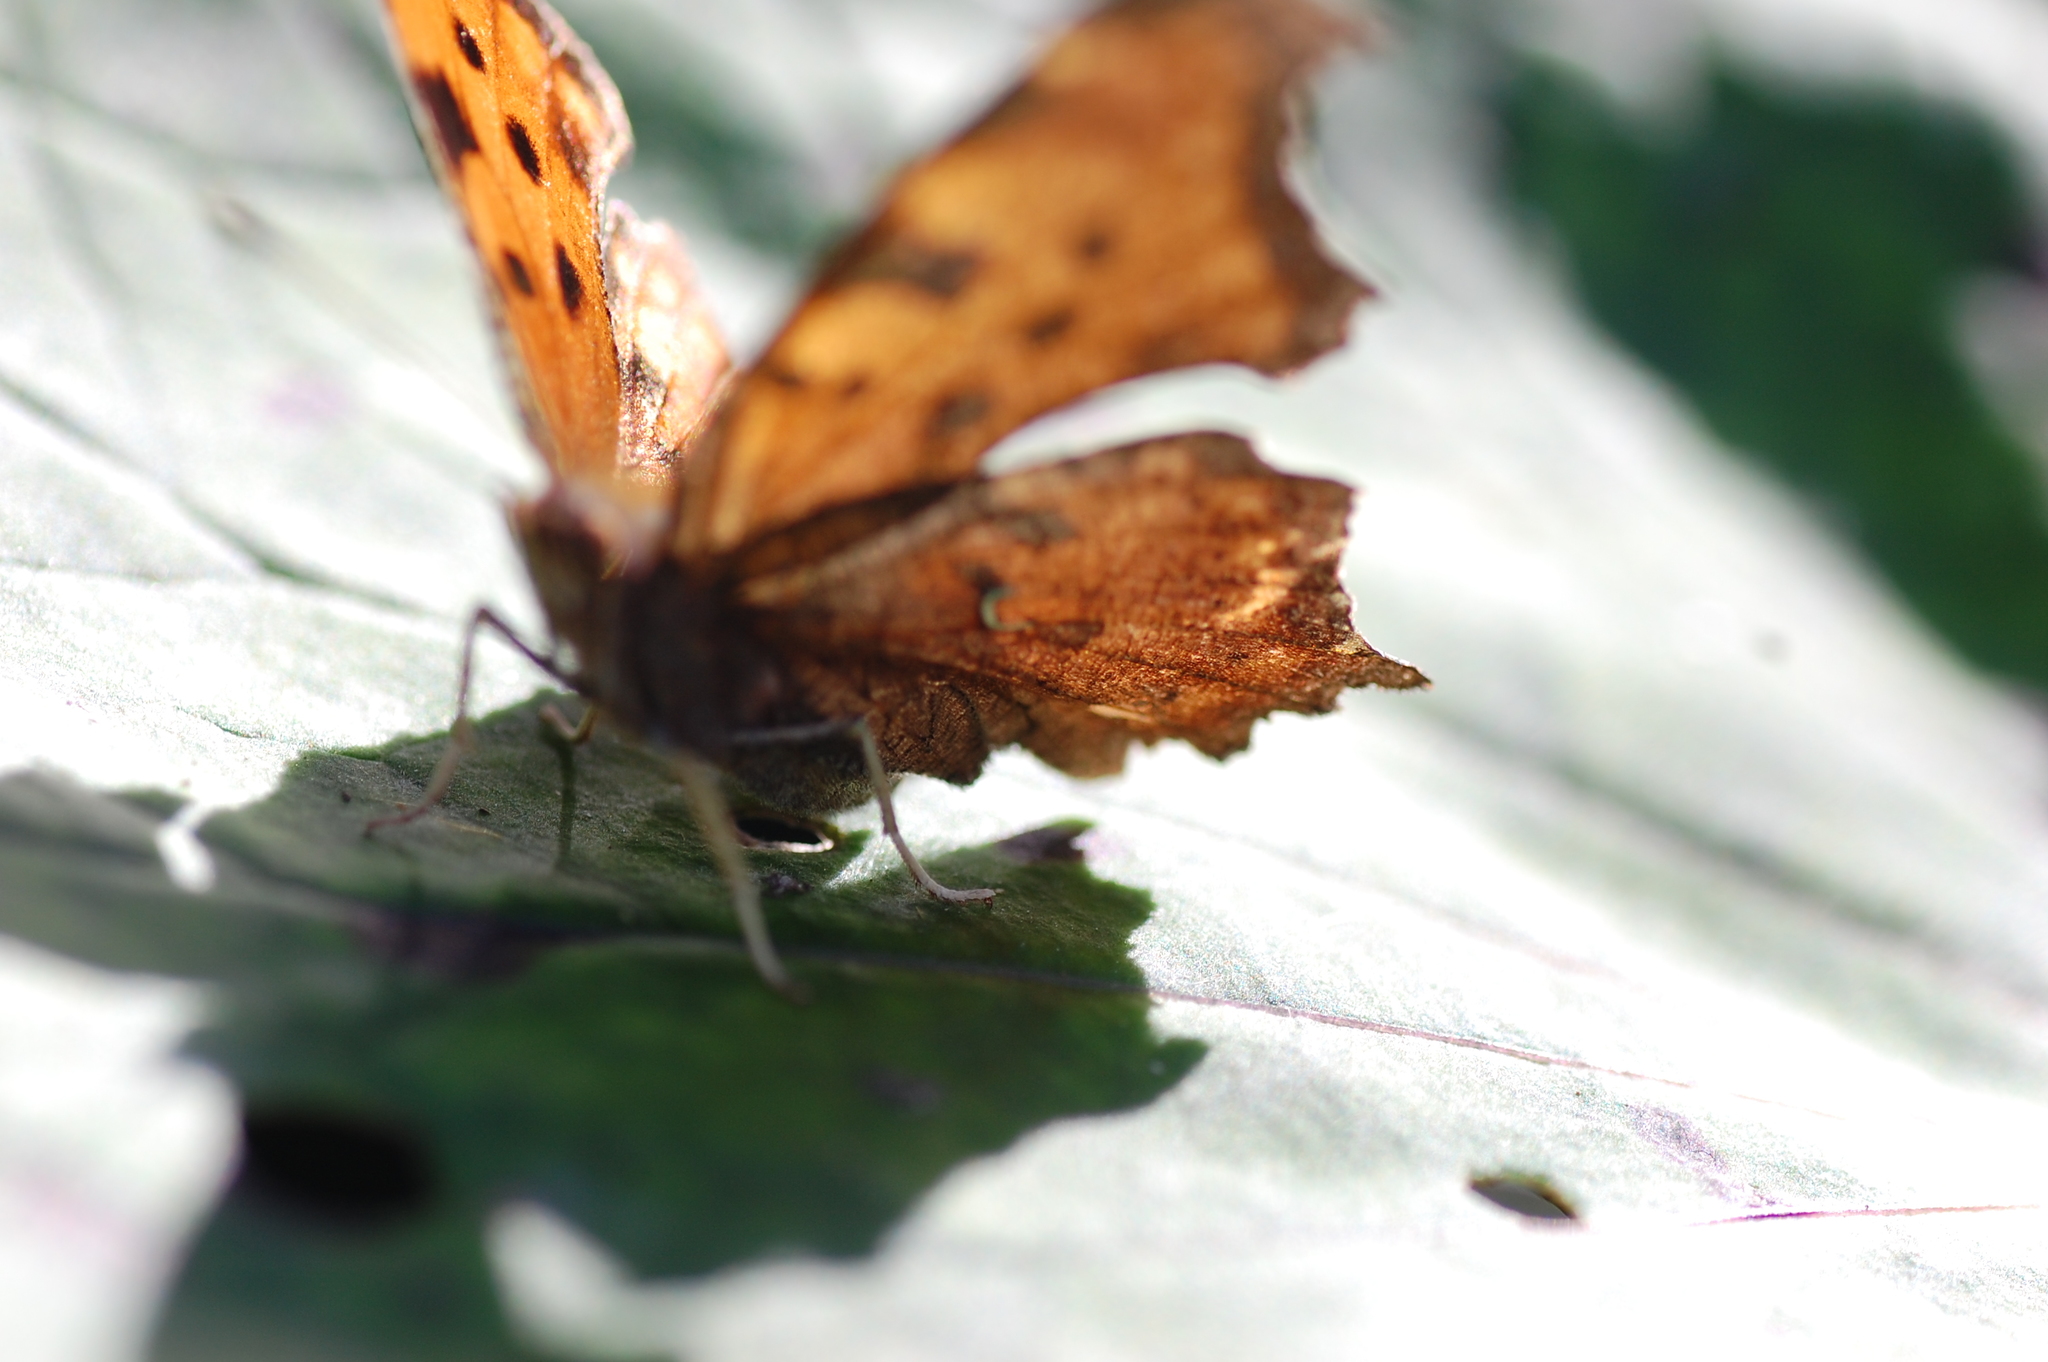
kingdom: Animalia
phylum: Arthropoda
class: Insecta
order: Lepidoptera
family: Nymphalidae
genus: Polygonia
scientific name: Polygonia comma
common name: Eastern comma
